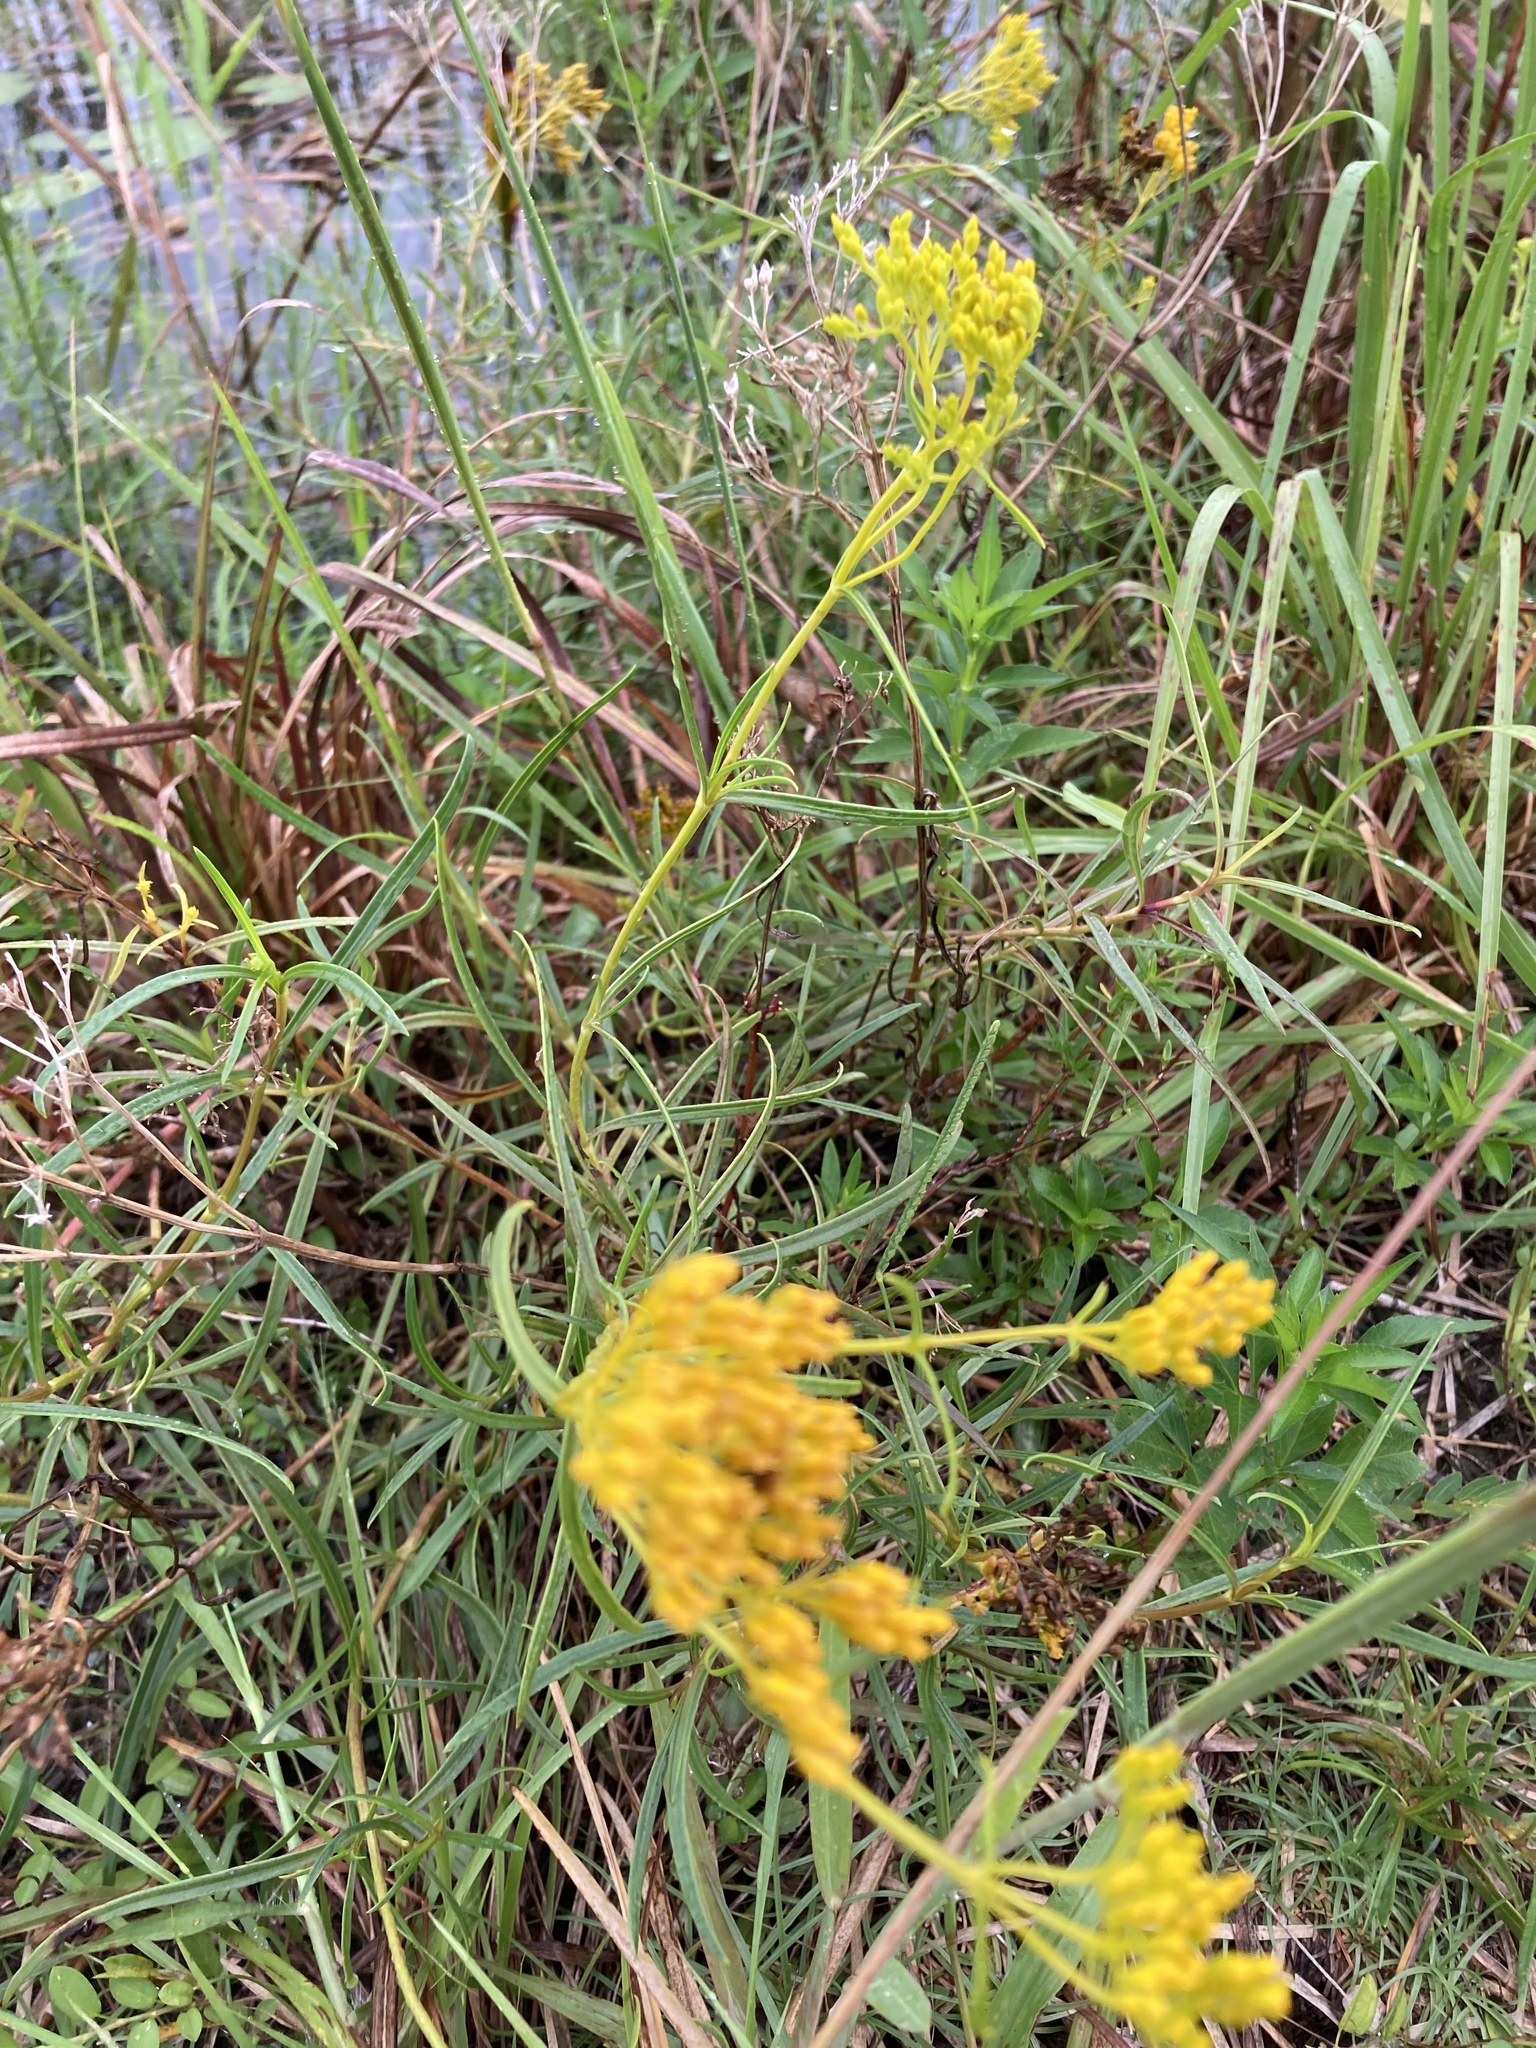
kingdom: Plantae
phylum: Tracheophyta
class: Magnoliopsida
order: Asterales
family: Asteraceae
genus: Flaveria
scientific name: Flaveria linearis
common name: Yellowtop
